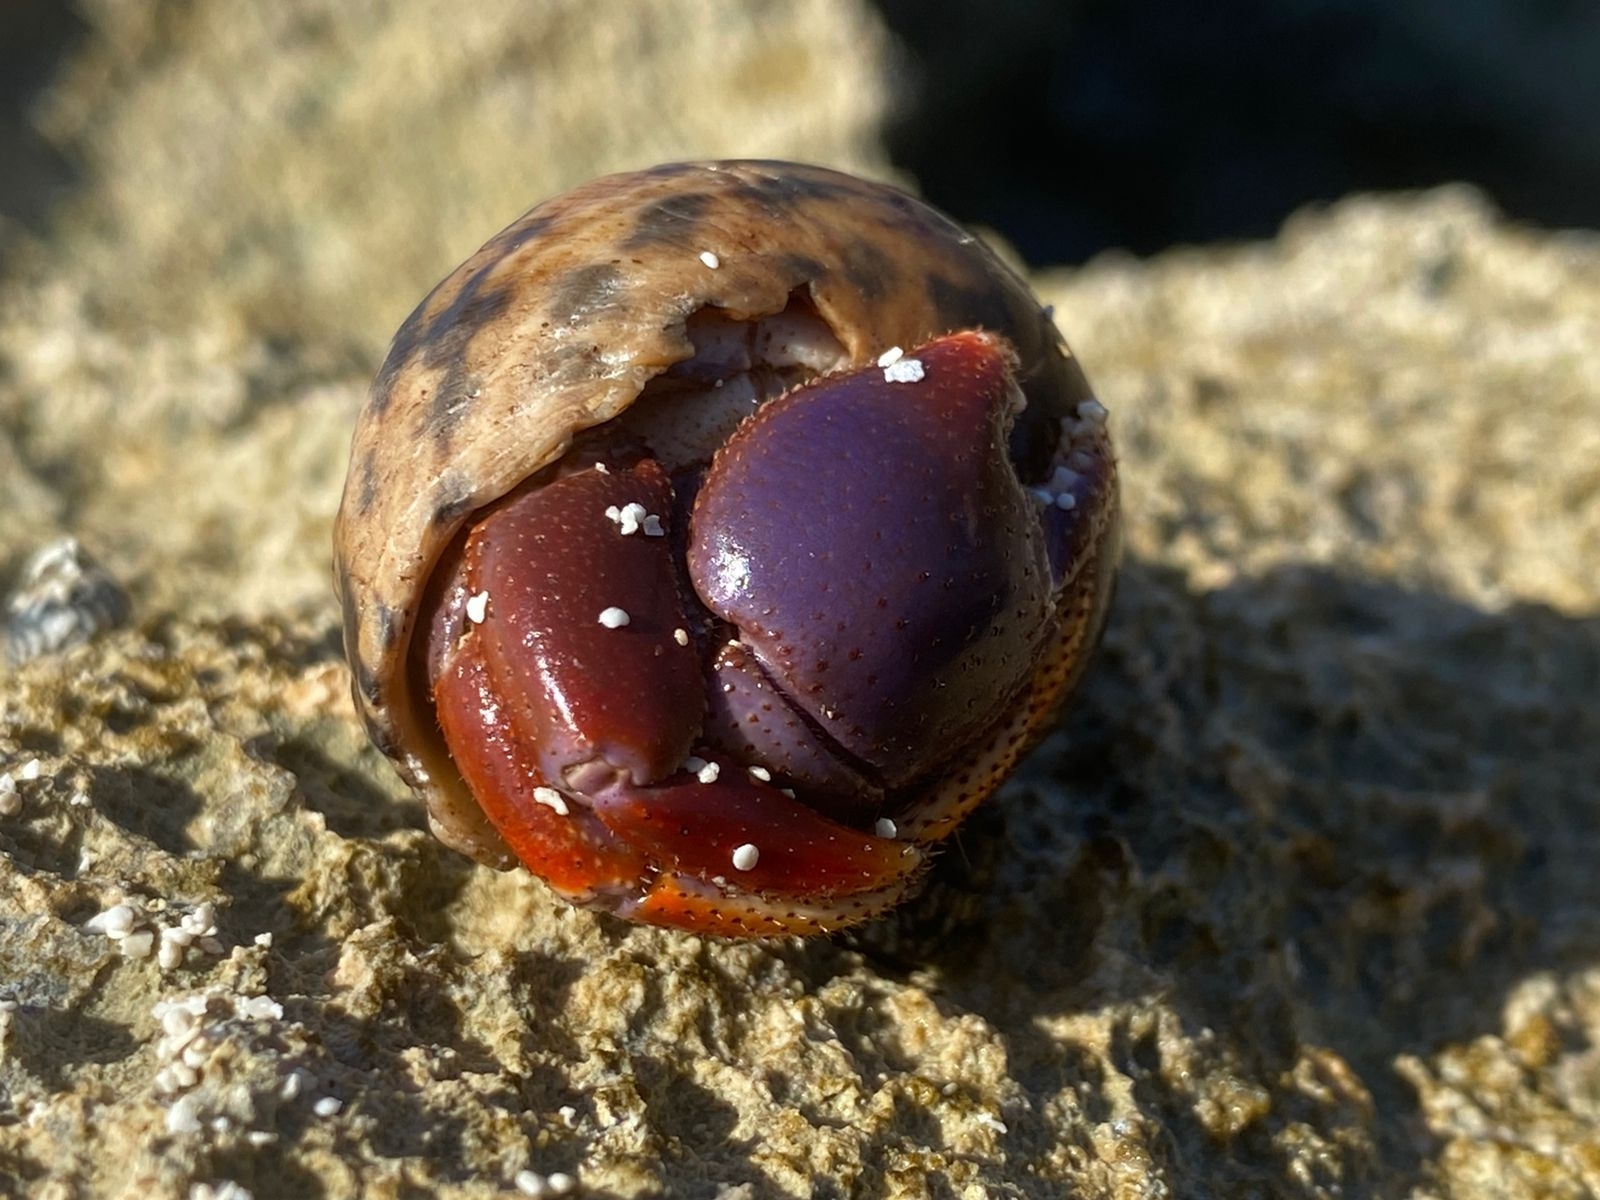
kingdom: Animalia
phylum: Arthropoda
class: Malacostraca
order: Decapoda
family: Coenobitidae
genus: Coenobita
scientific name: Coenobita clypeatus
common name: Caribbean hermit crab
